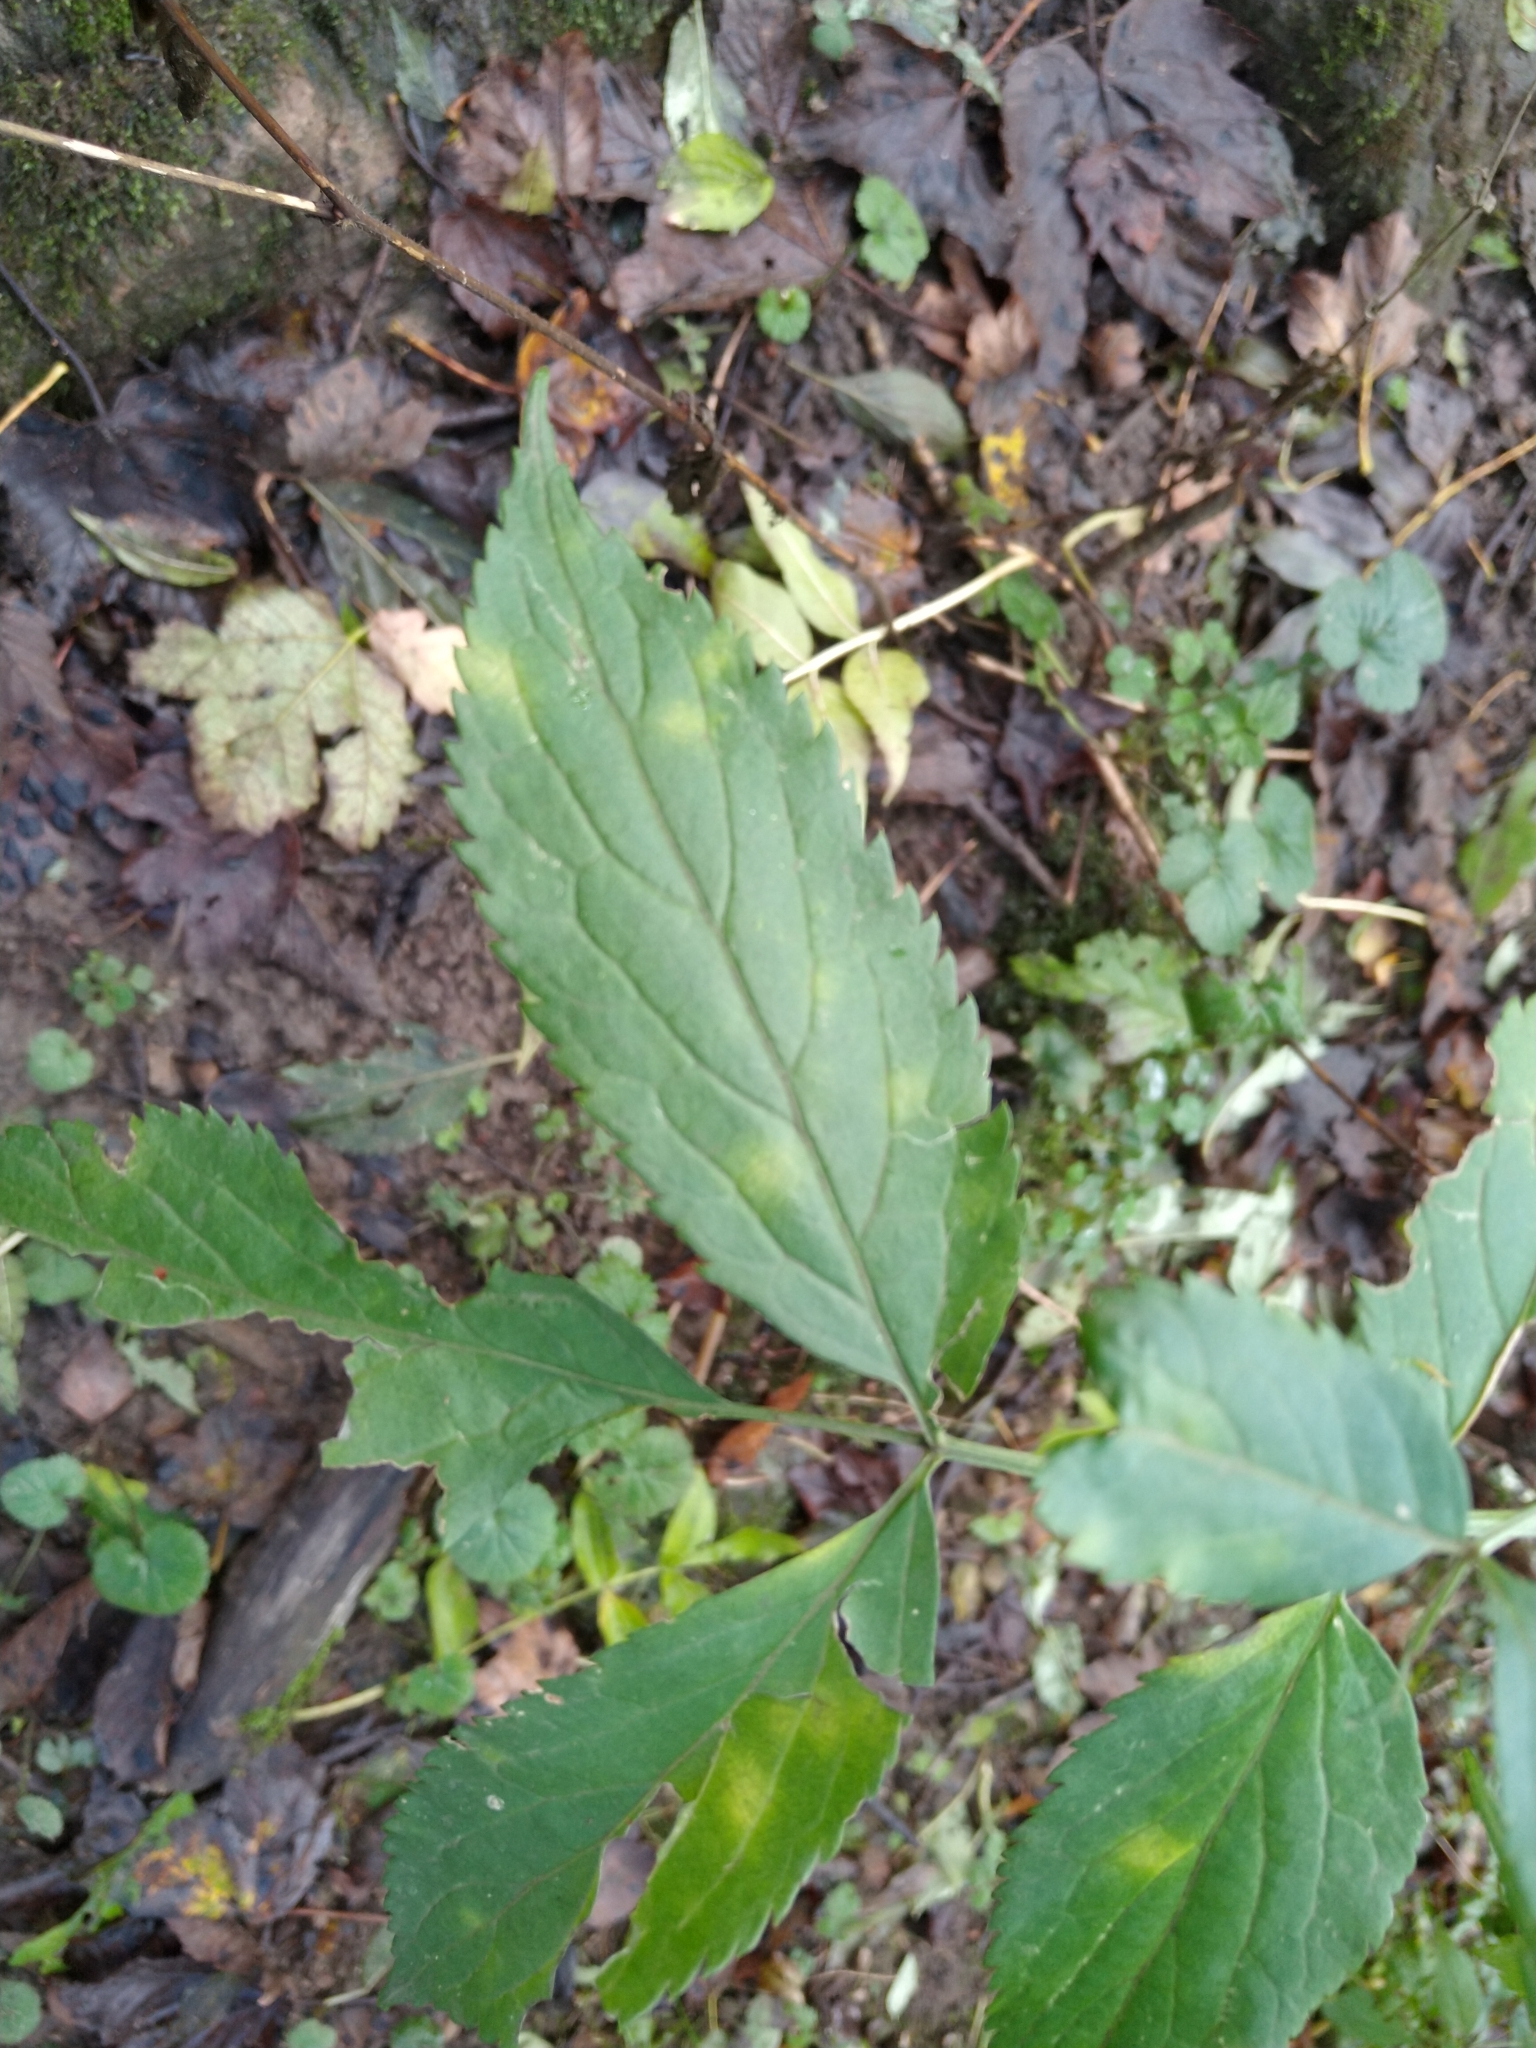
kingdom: Plantae
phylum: Tracheophyta
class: Magnoliopsida
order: Dipsacales
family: Viburnaceae
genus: Sambucus
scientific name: Sambucus nigra
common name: Elder
